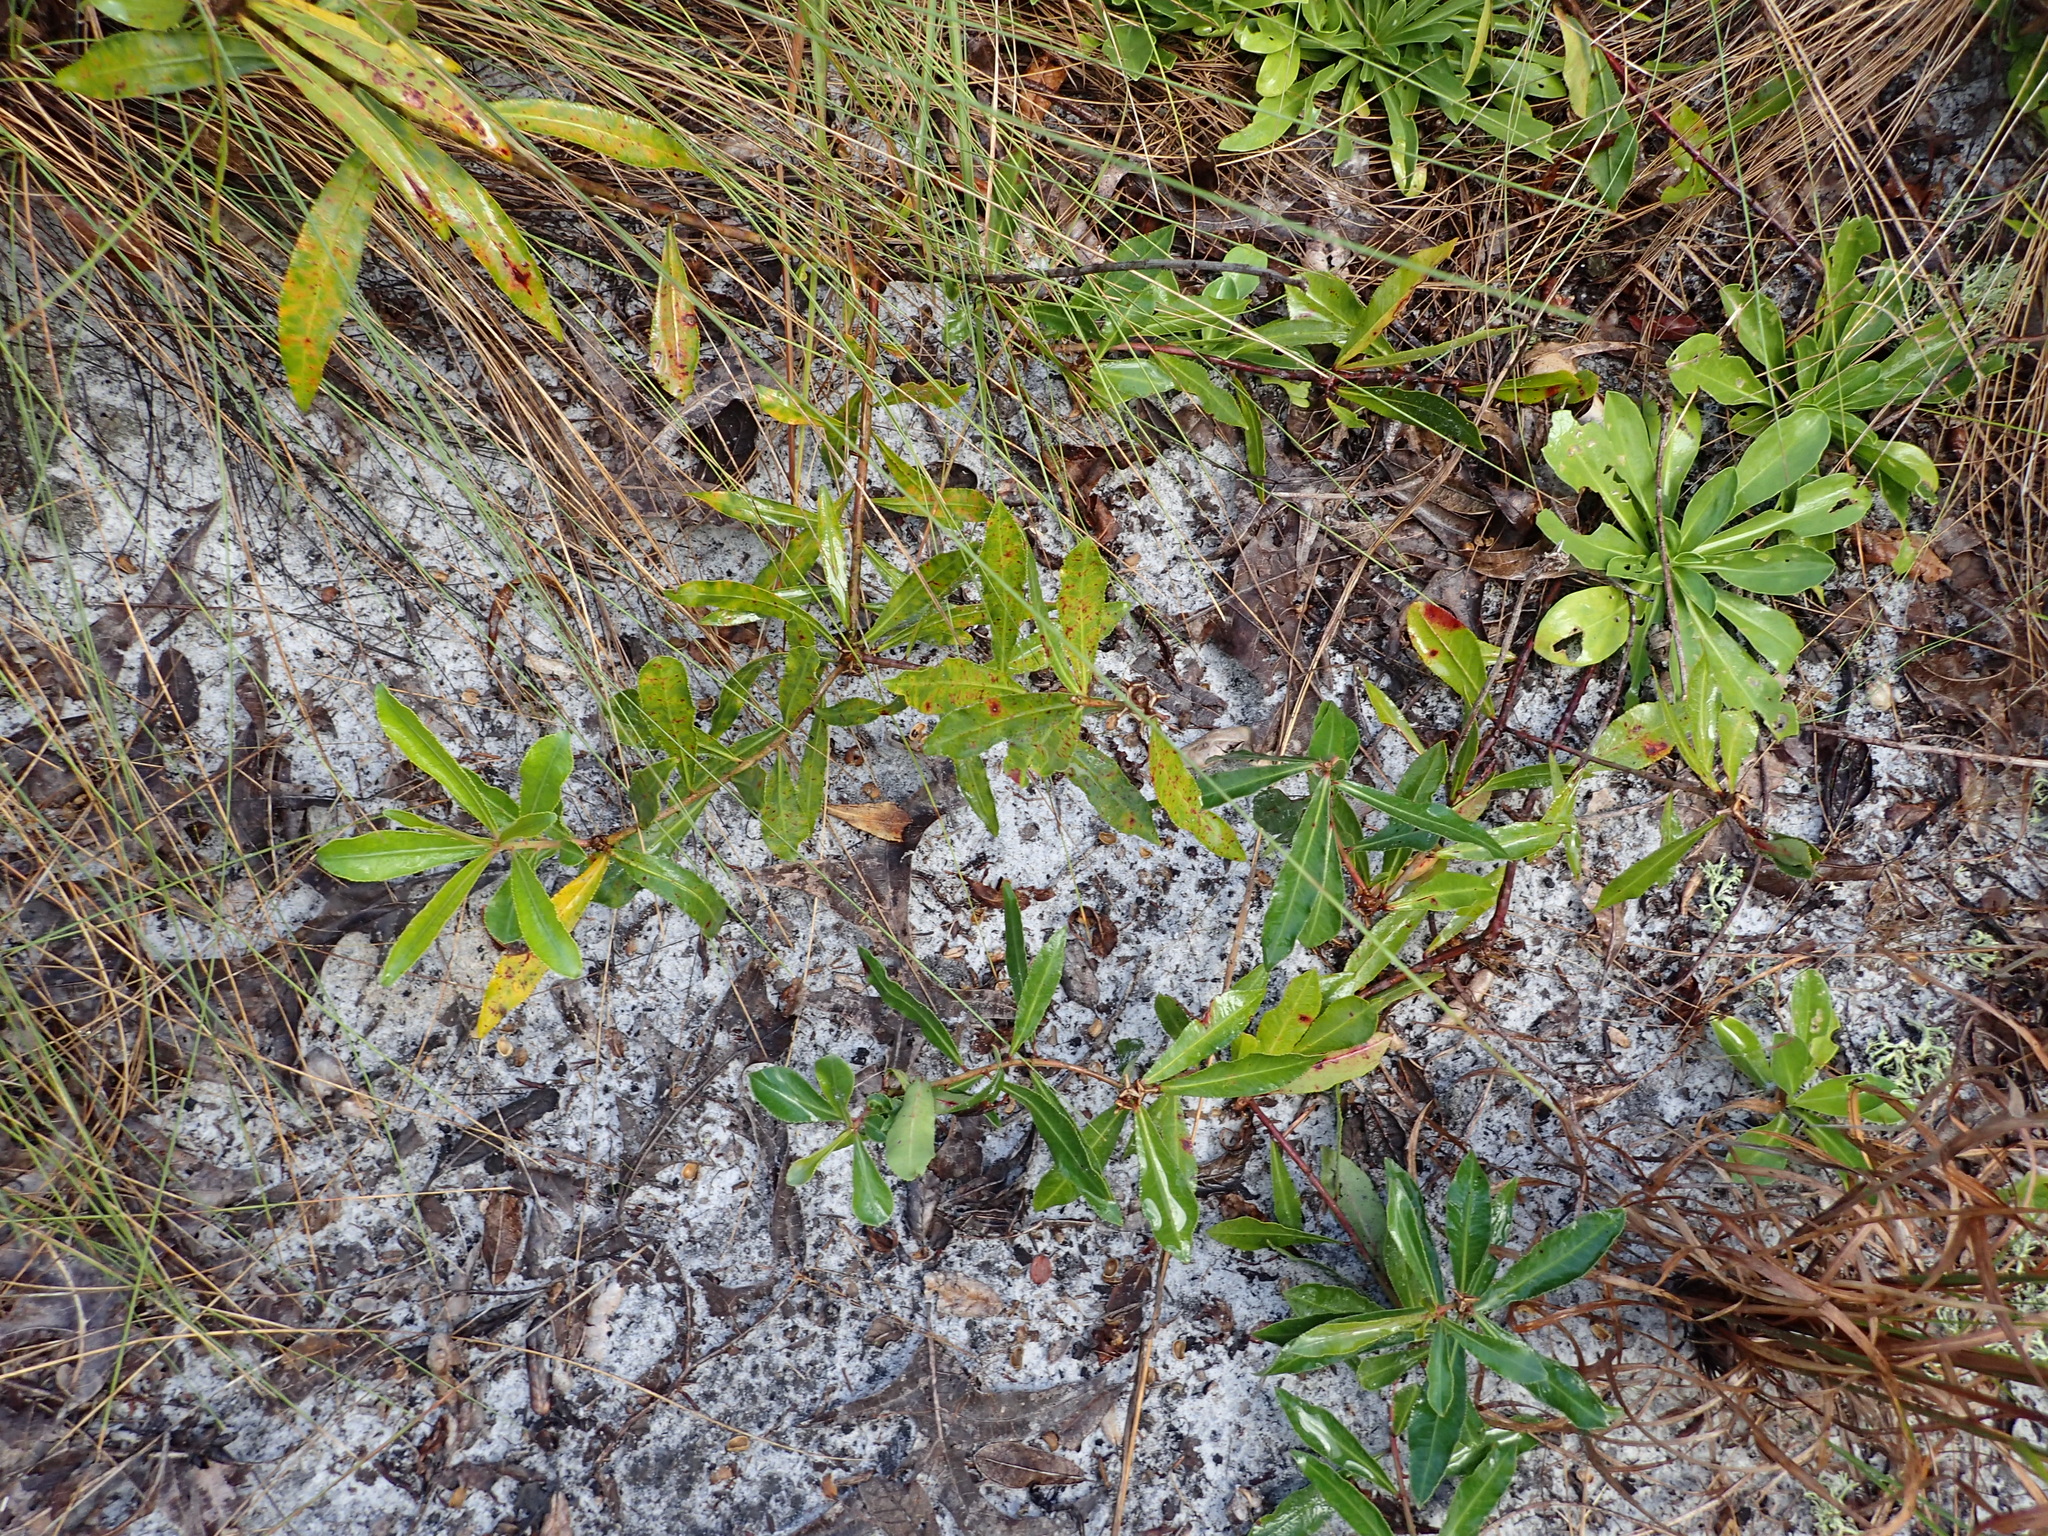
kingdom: Plantae
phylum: Tracheophyta
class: Magnoliopsida
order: Malpighiales
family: Euphorbiaceae
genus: Stillingia
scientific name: Stillingia sylvatica
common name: Queen's-delight
